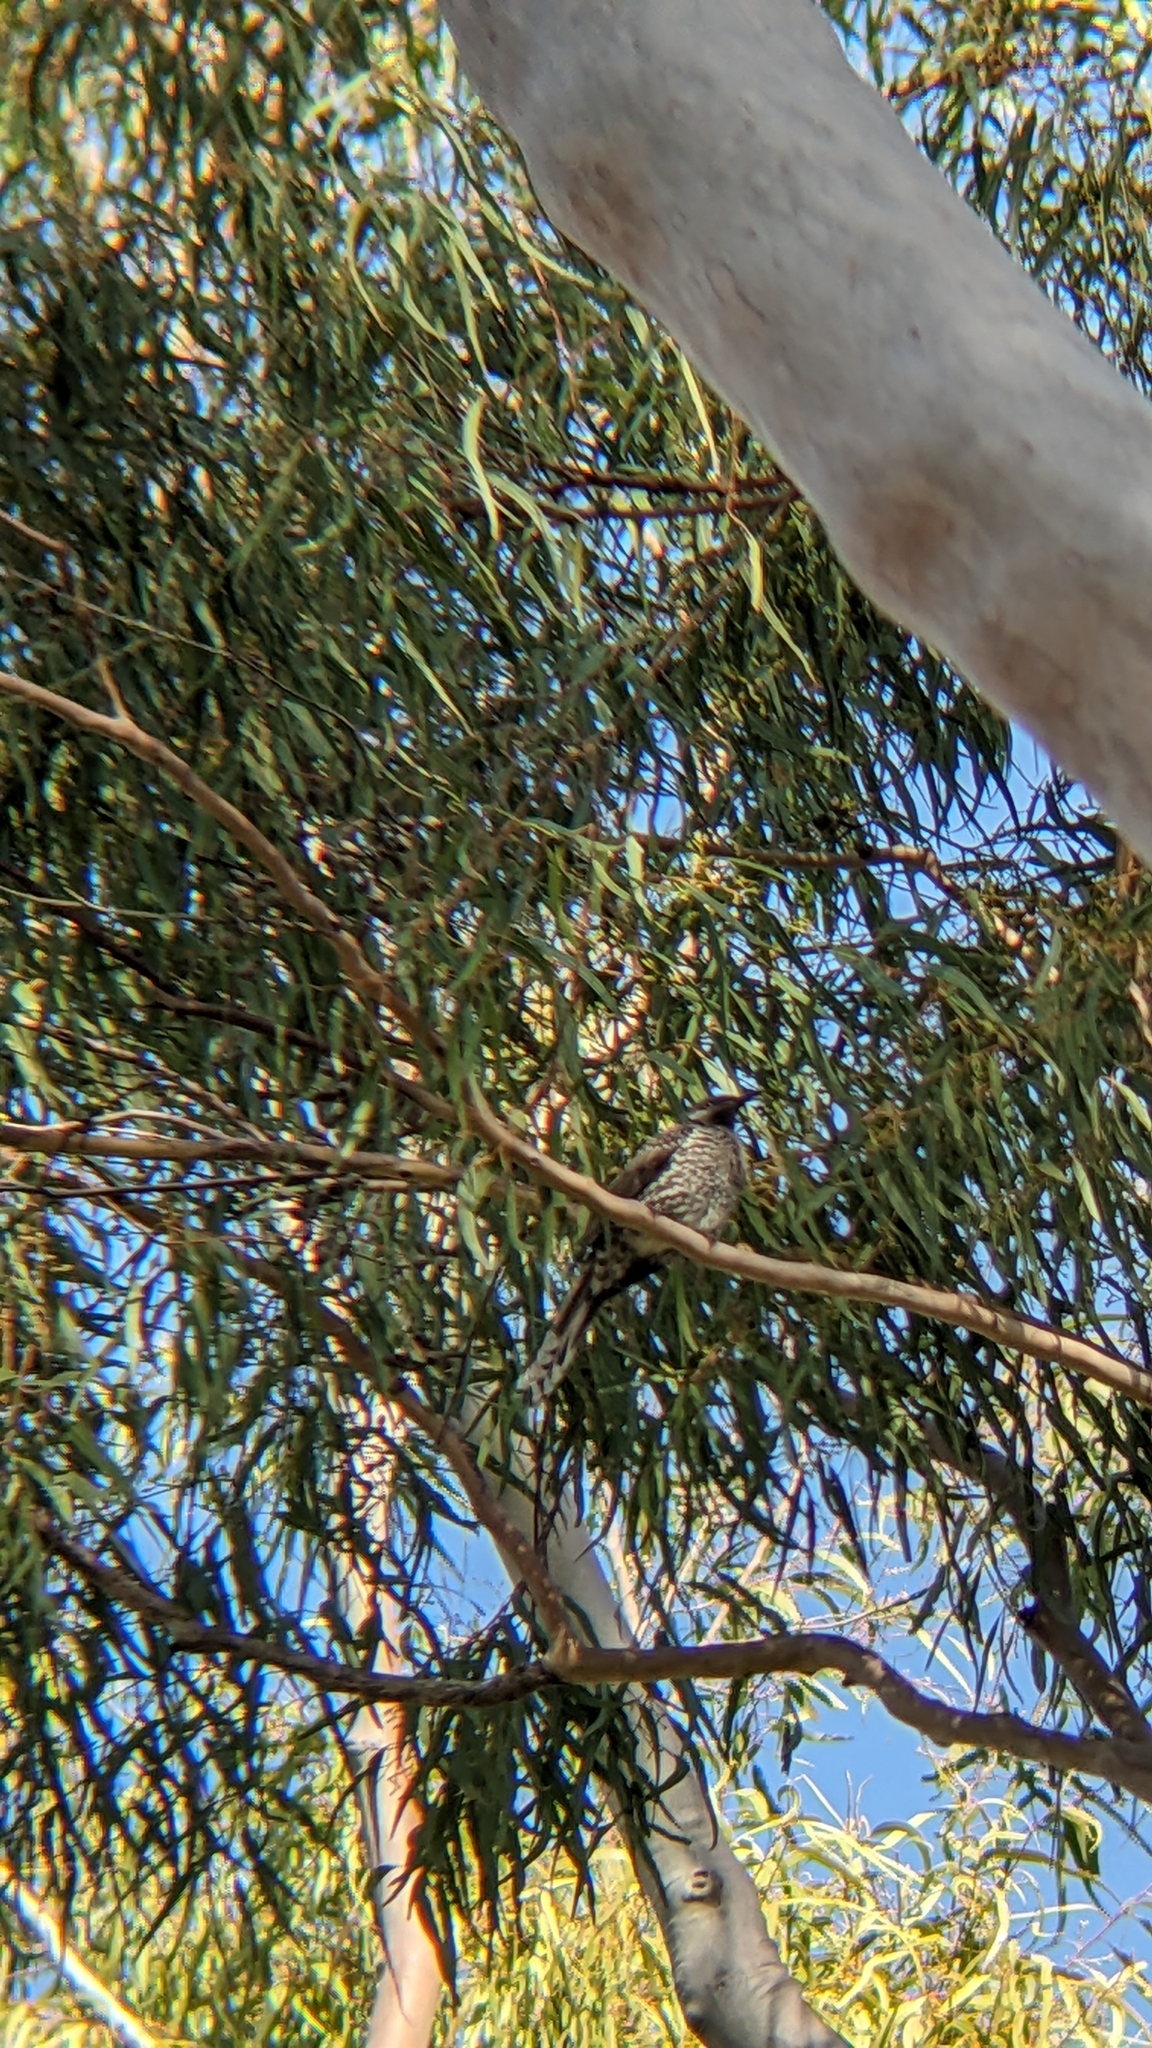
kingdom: Animalia
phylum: Chordata
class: Aves
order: Passeriformes
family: Meliphagidae
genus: Anthochaera
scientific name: Anthochaera chrysoptera
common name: Little wattlebird
